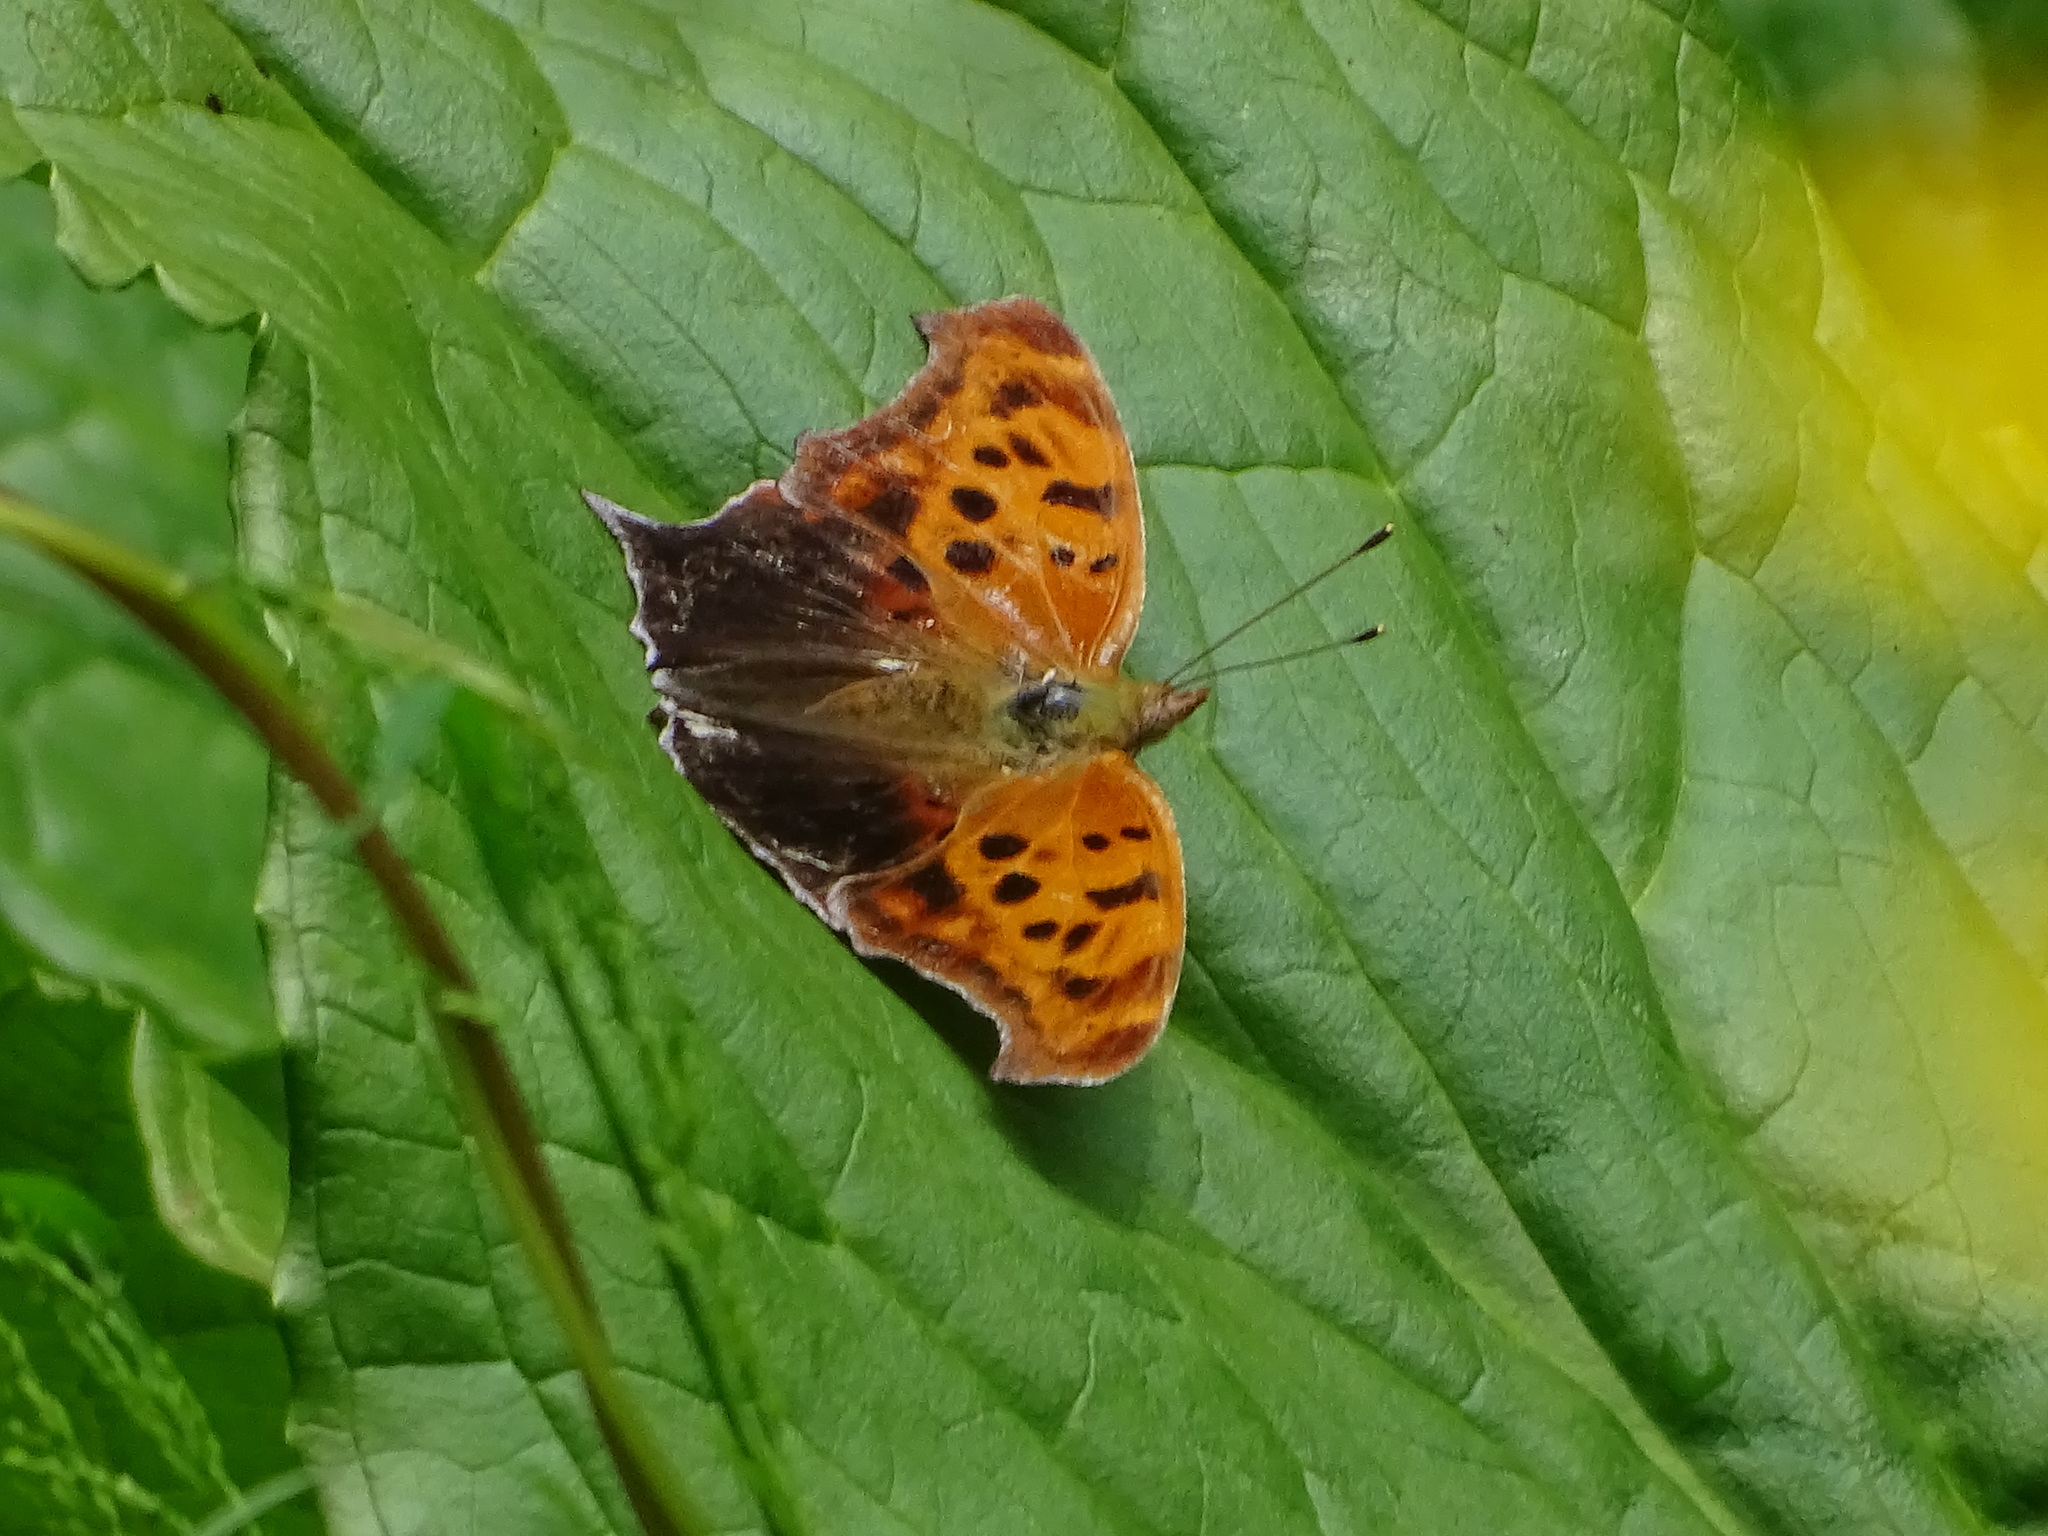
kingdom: Animalia
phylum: Arthropoda
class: Insecta
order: Lepidoptera
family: Nymphalidae
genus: Polygonia
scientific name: Polygonia interrogationis
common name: Question mark
